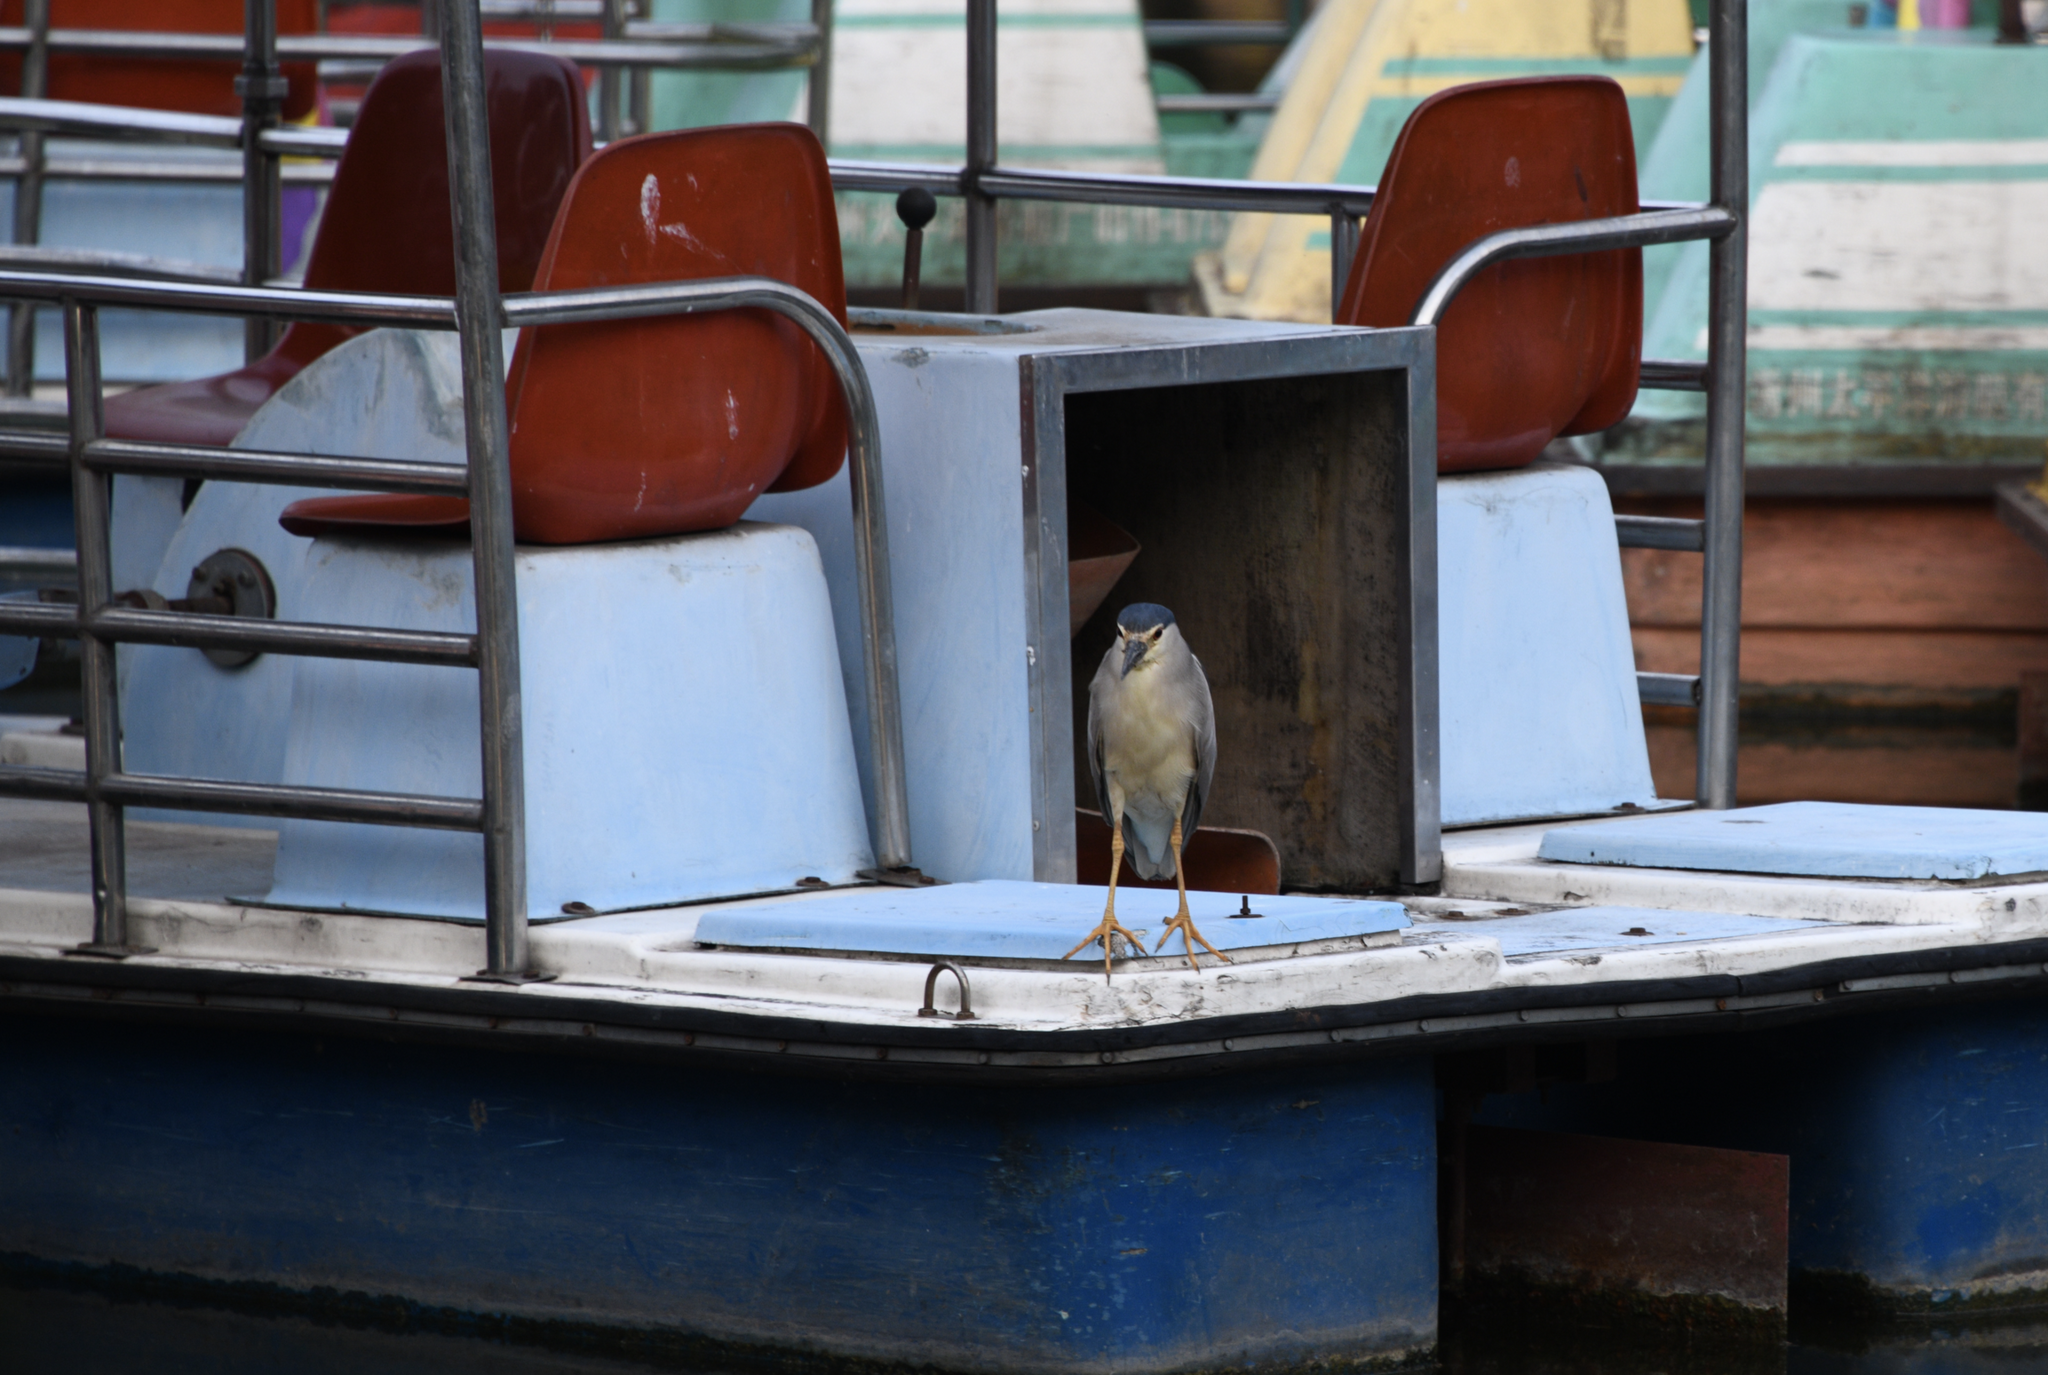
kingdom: Animalia
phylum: Chordata
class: Aves
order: Pelecaniformes
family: Ardeidae
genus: Nycticorax
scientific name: Nycticorax nycticorax
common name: Black-crowned night heron
